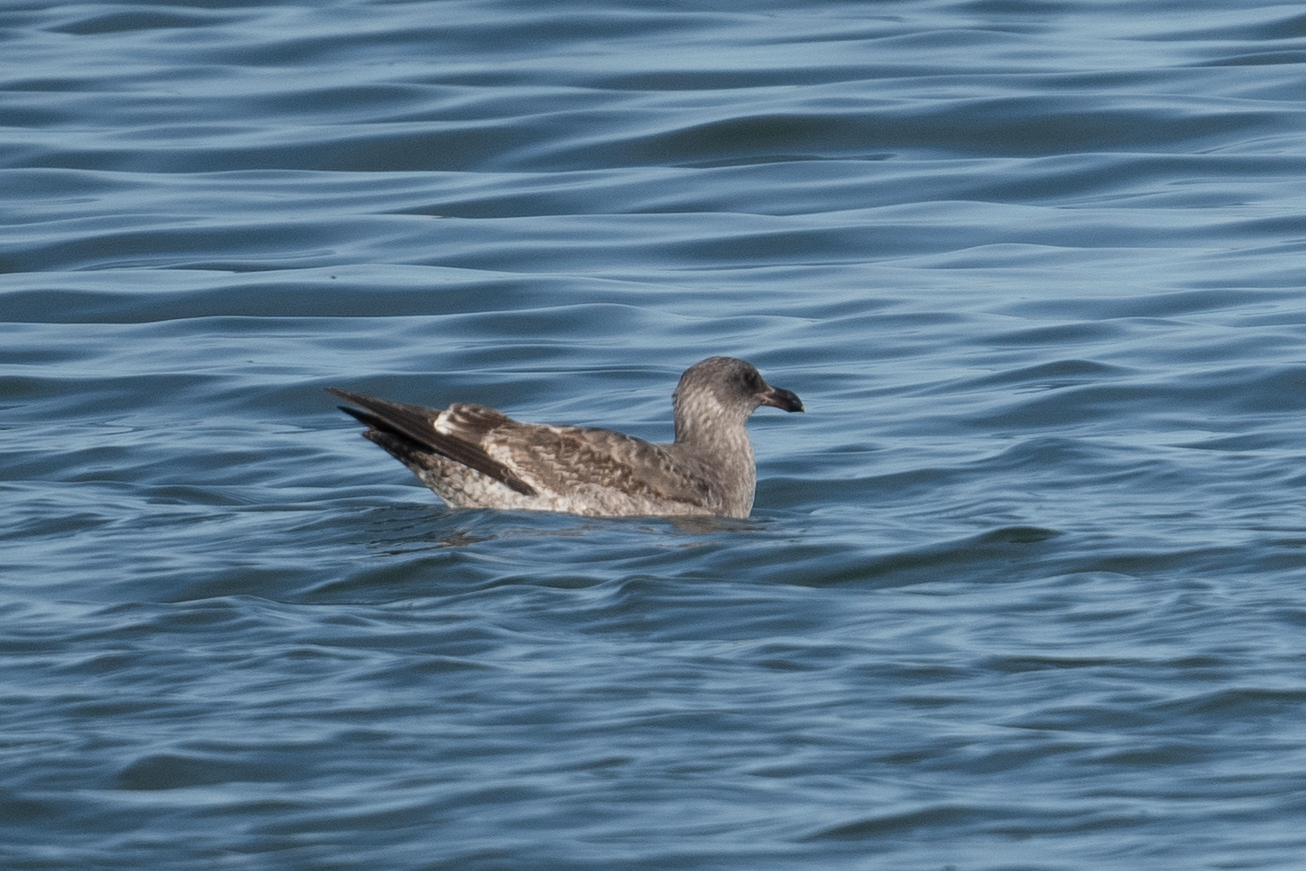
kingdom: Animalia
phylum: Chordata
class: Aves
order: Charadriiformes
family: Laridae
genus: Larus
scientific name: Larus occidentalis
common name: Western gull
